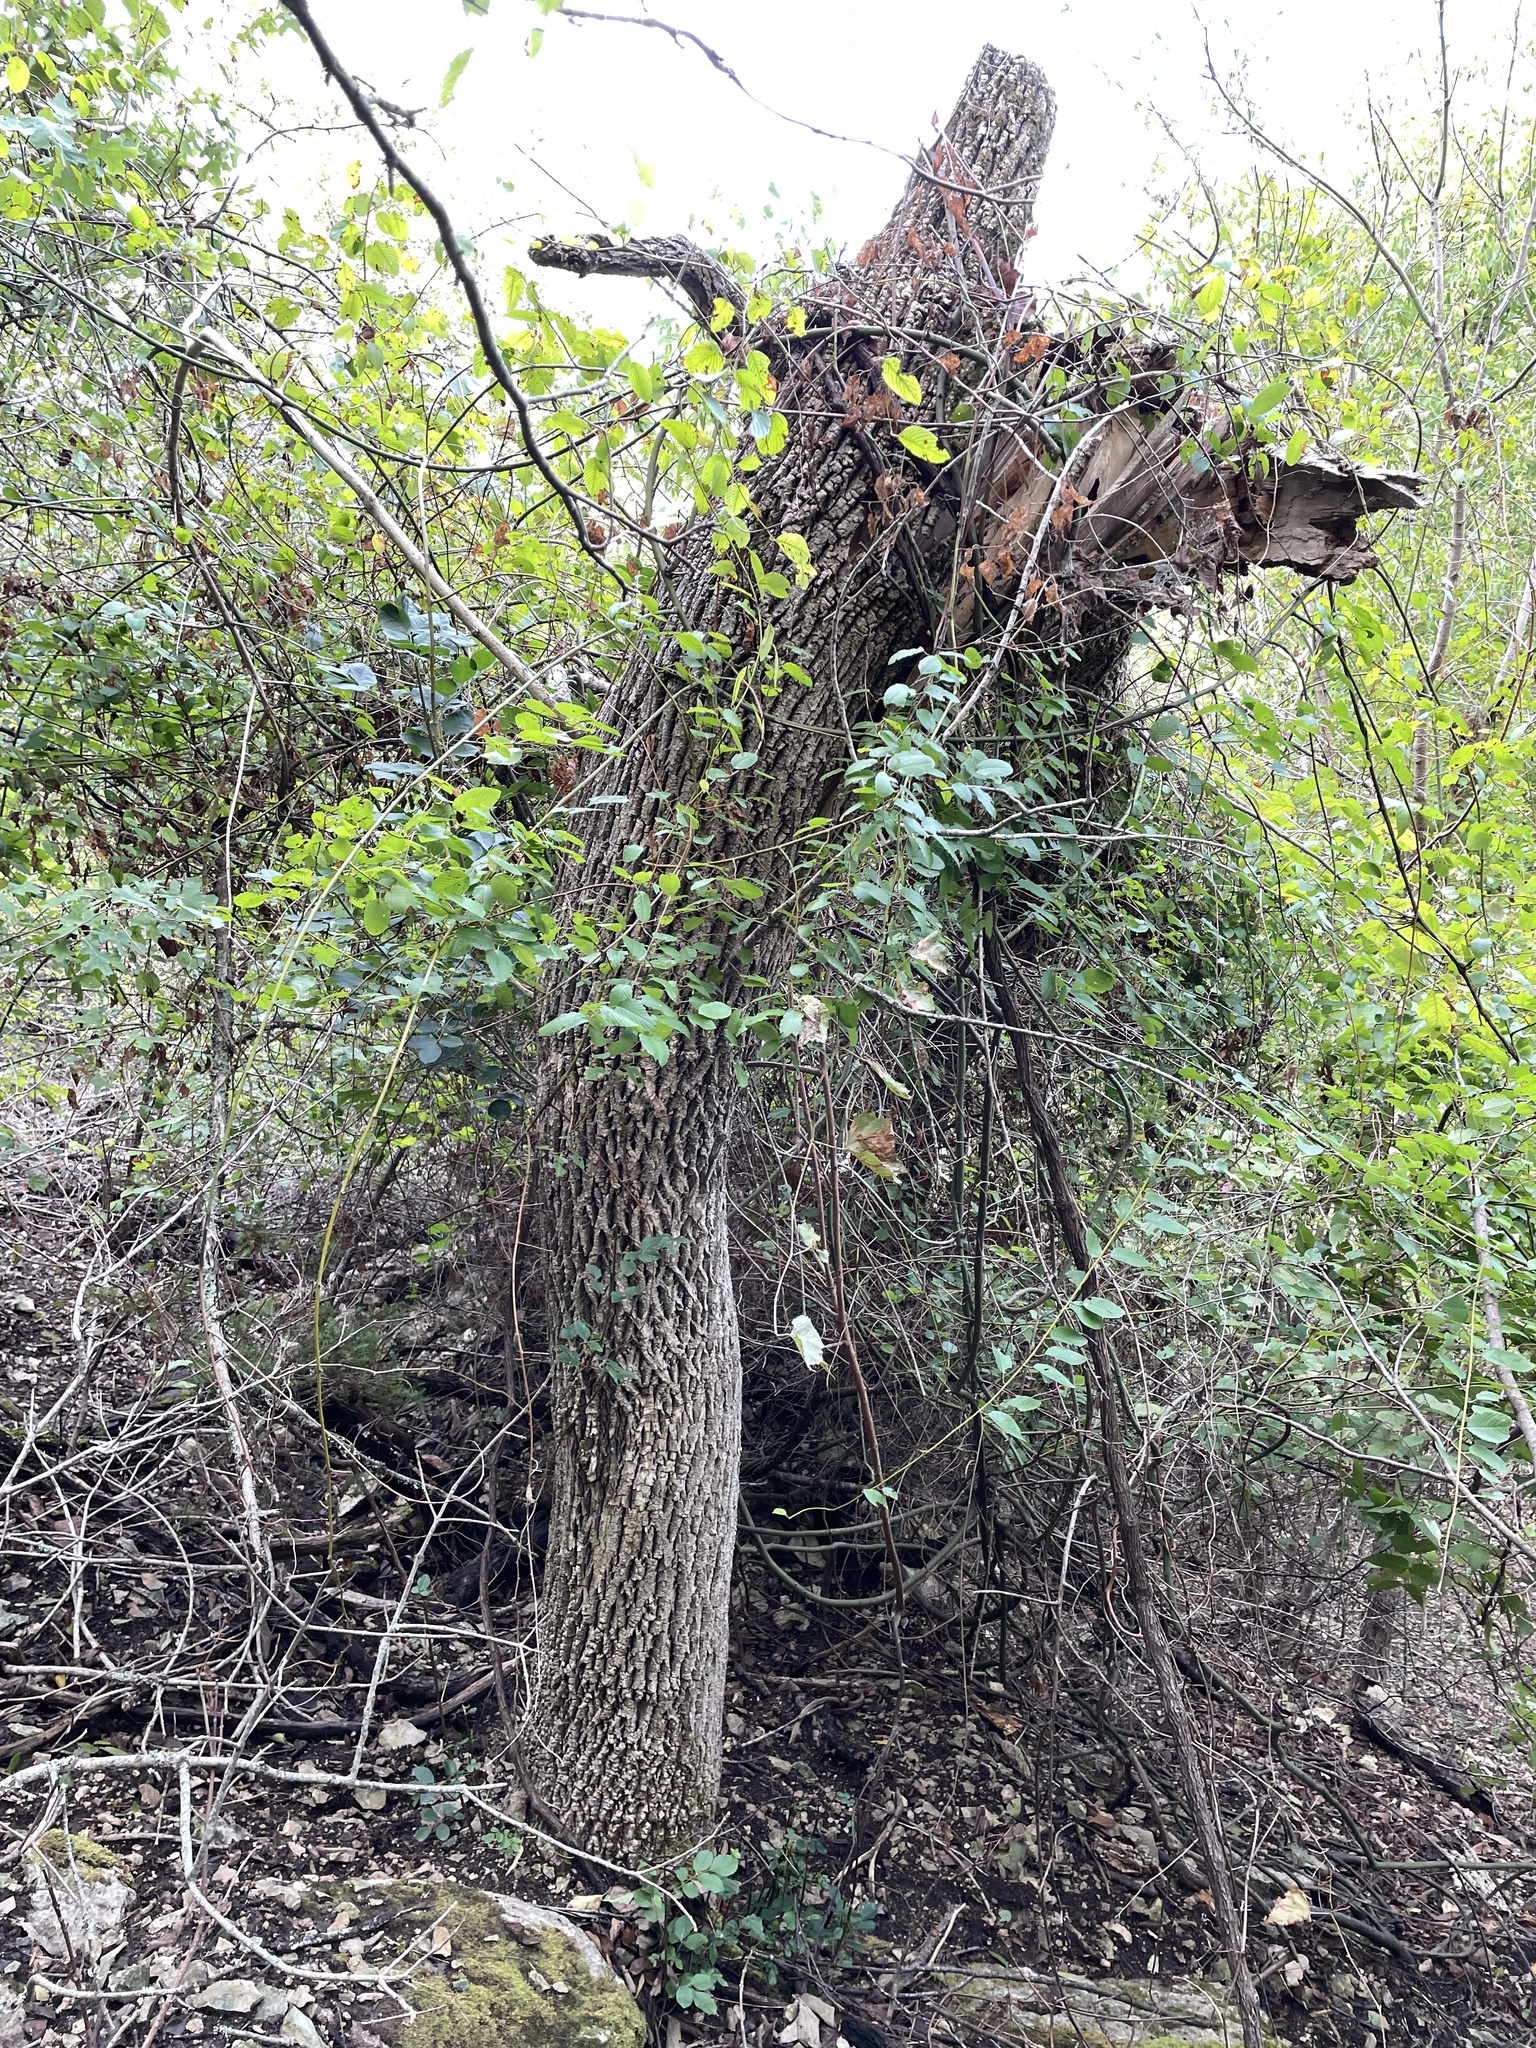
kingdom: Plantae
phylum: Tracheophyta
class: Magnoliopsida
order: Lamiales
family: Oleaceae
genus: Fraxinus
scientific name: Fraxinus albicans
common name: Texas ash
